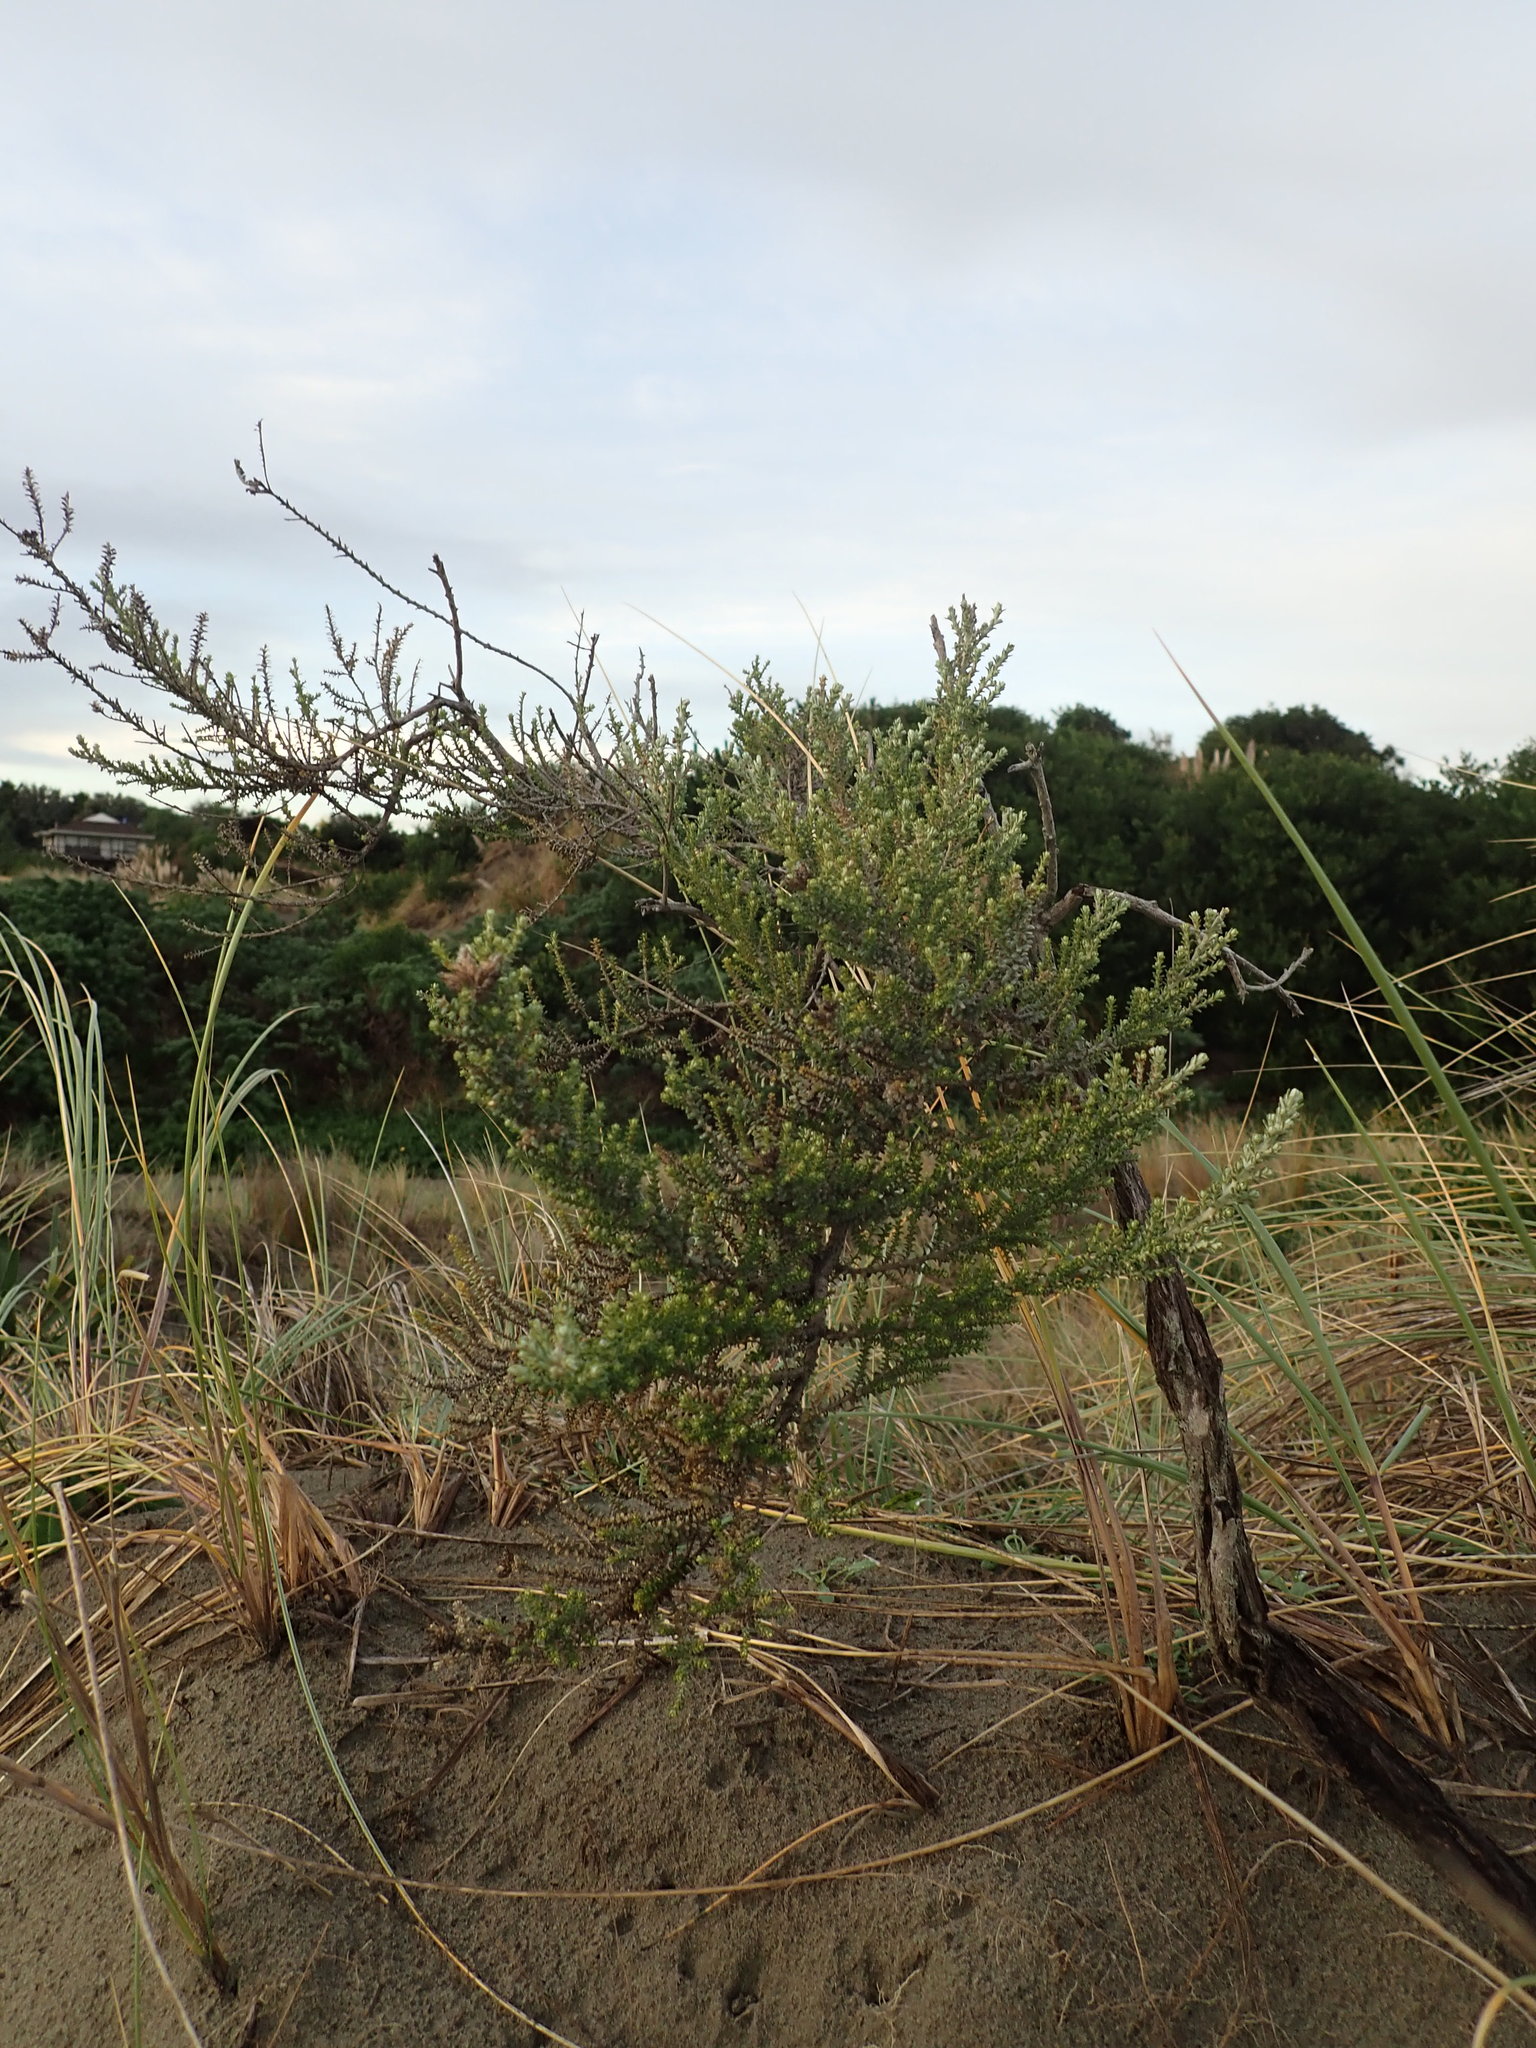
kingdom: Plantae
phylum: Tracheophyta
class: Magnoliopsida
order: Asterales
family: Asteraceae
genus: Ozothamnus
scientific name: Ozothamnus leptophyllus
